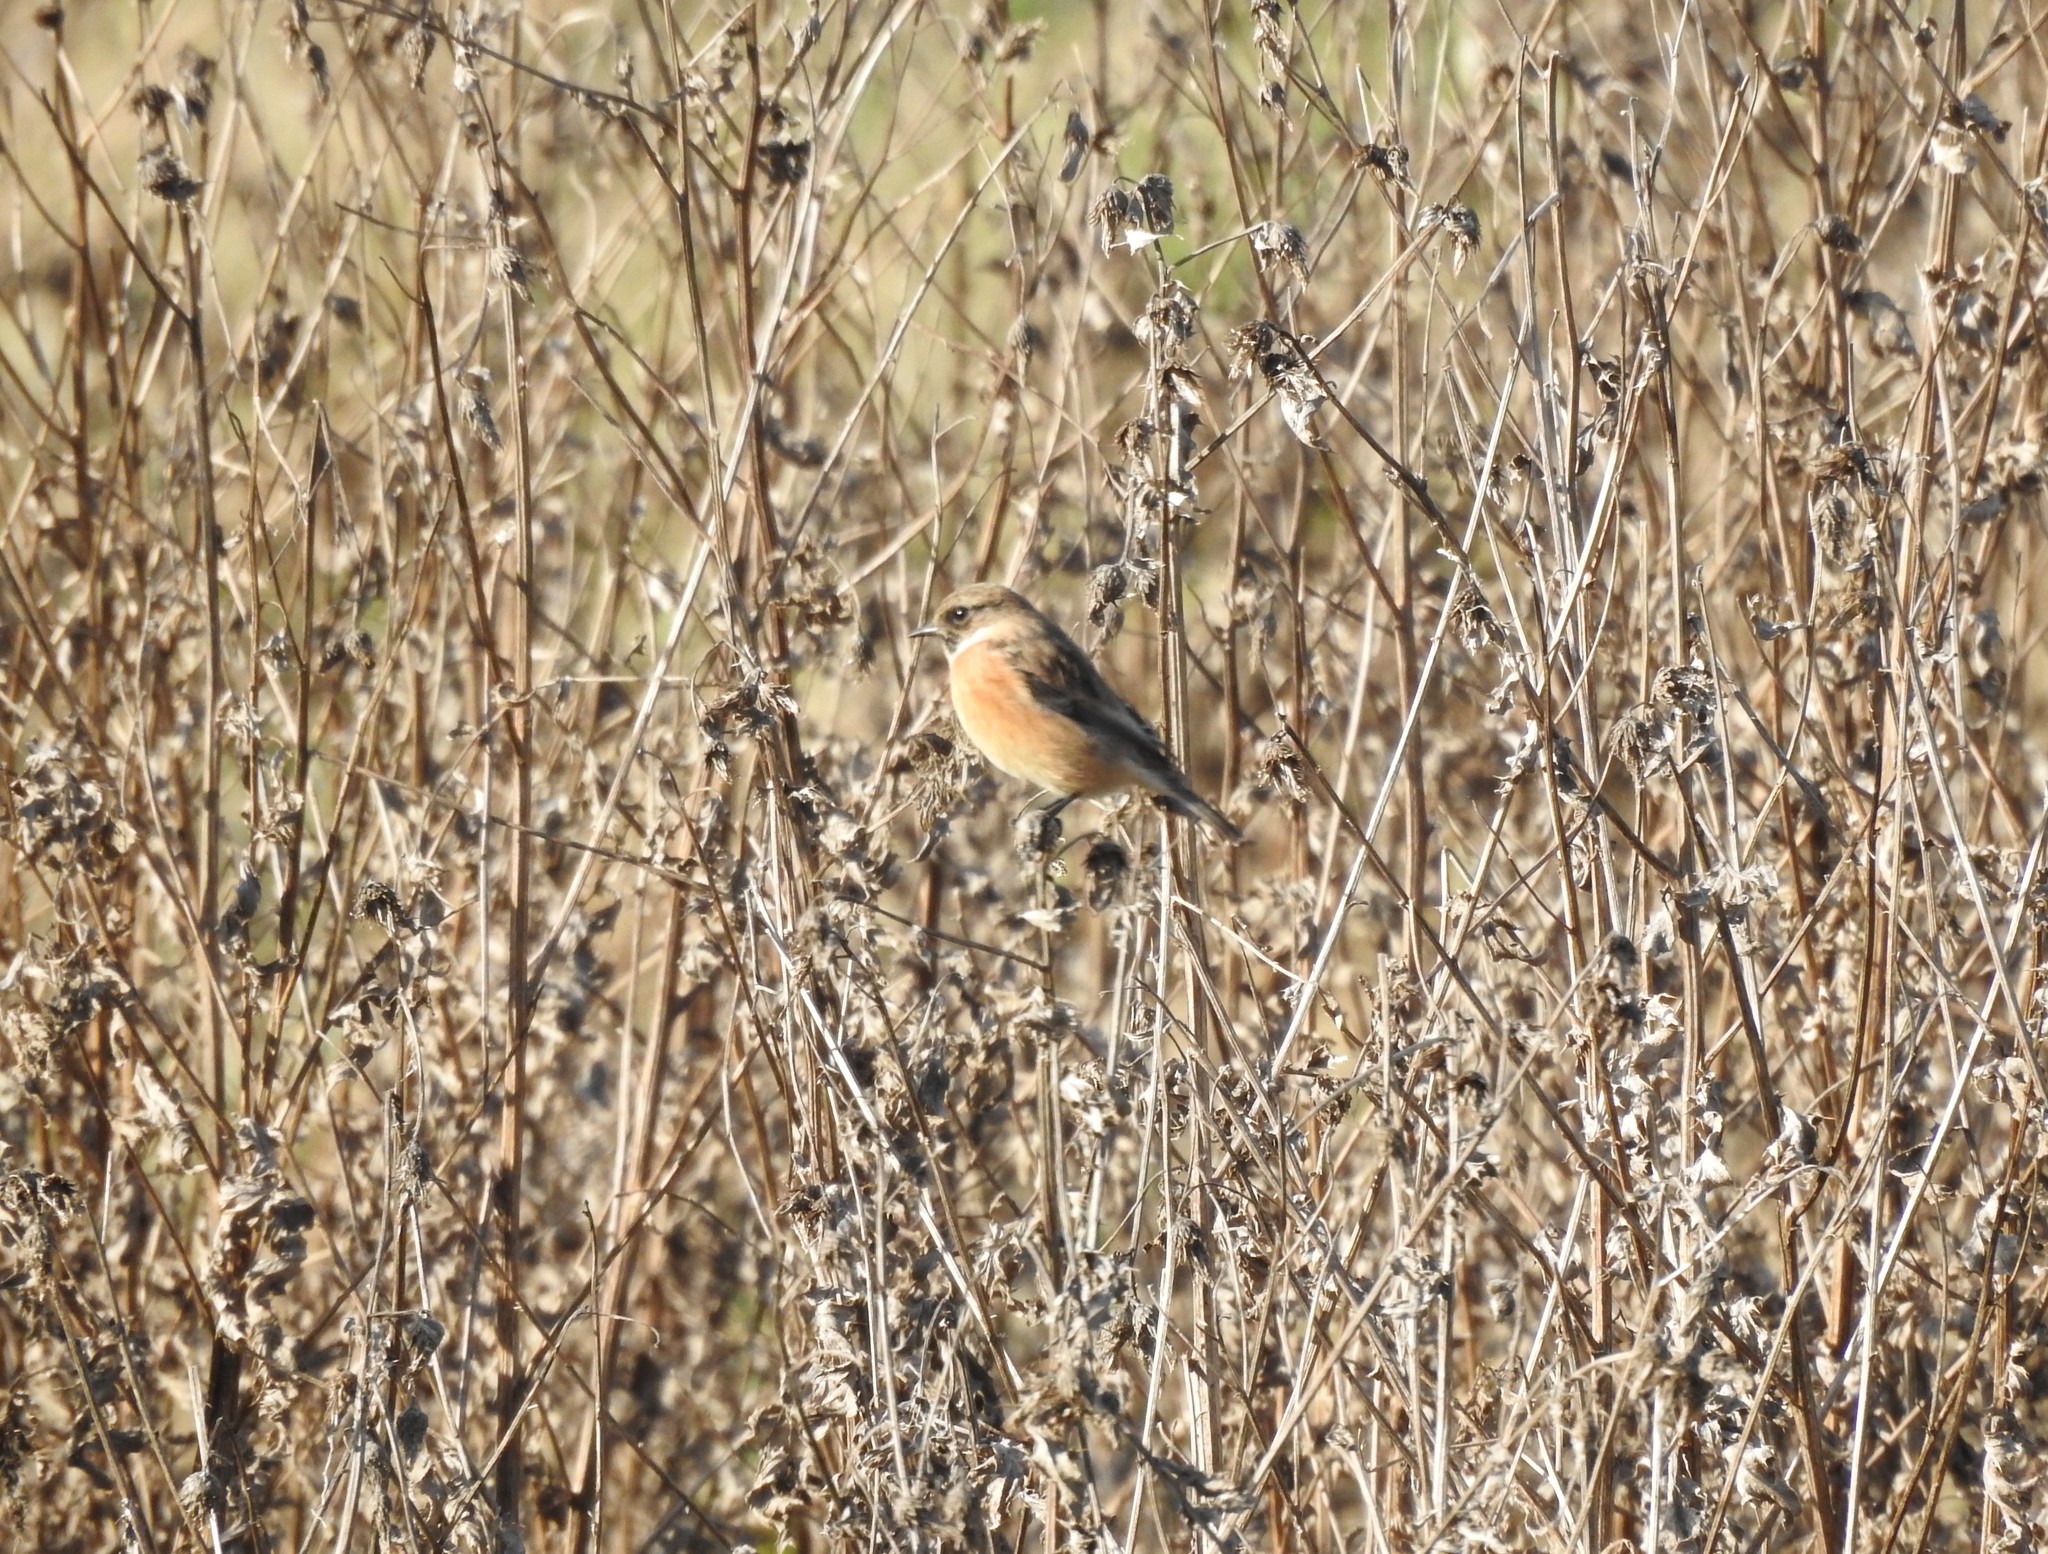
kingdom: Animalia
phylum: Chordata
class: Aves
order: Passeriformes
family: Muscicapidae
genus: Saxicola
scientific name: Saxicola rubicola
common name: European stonechat
